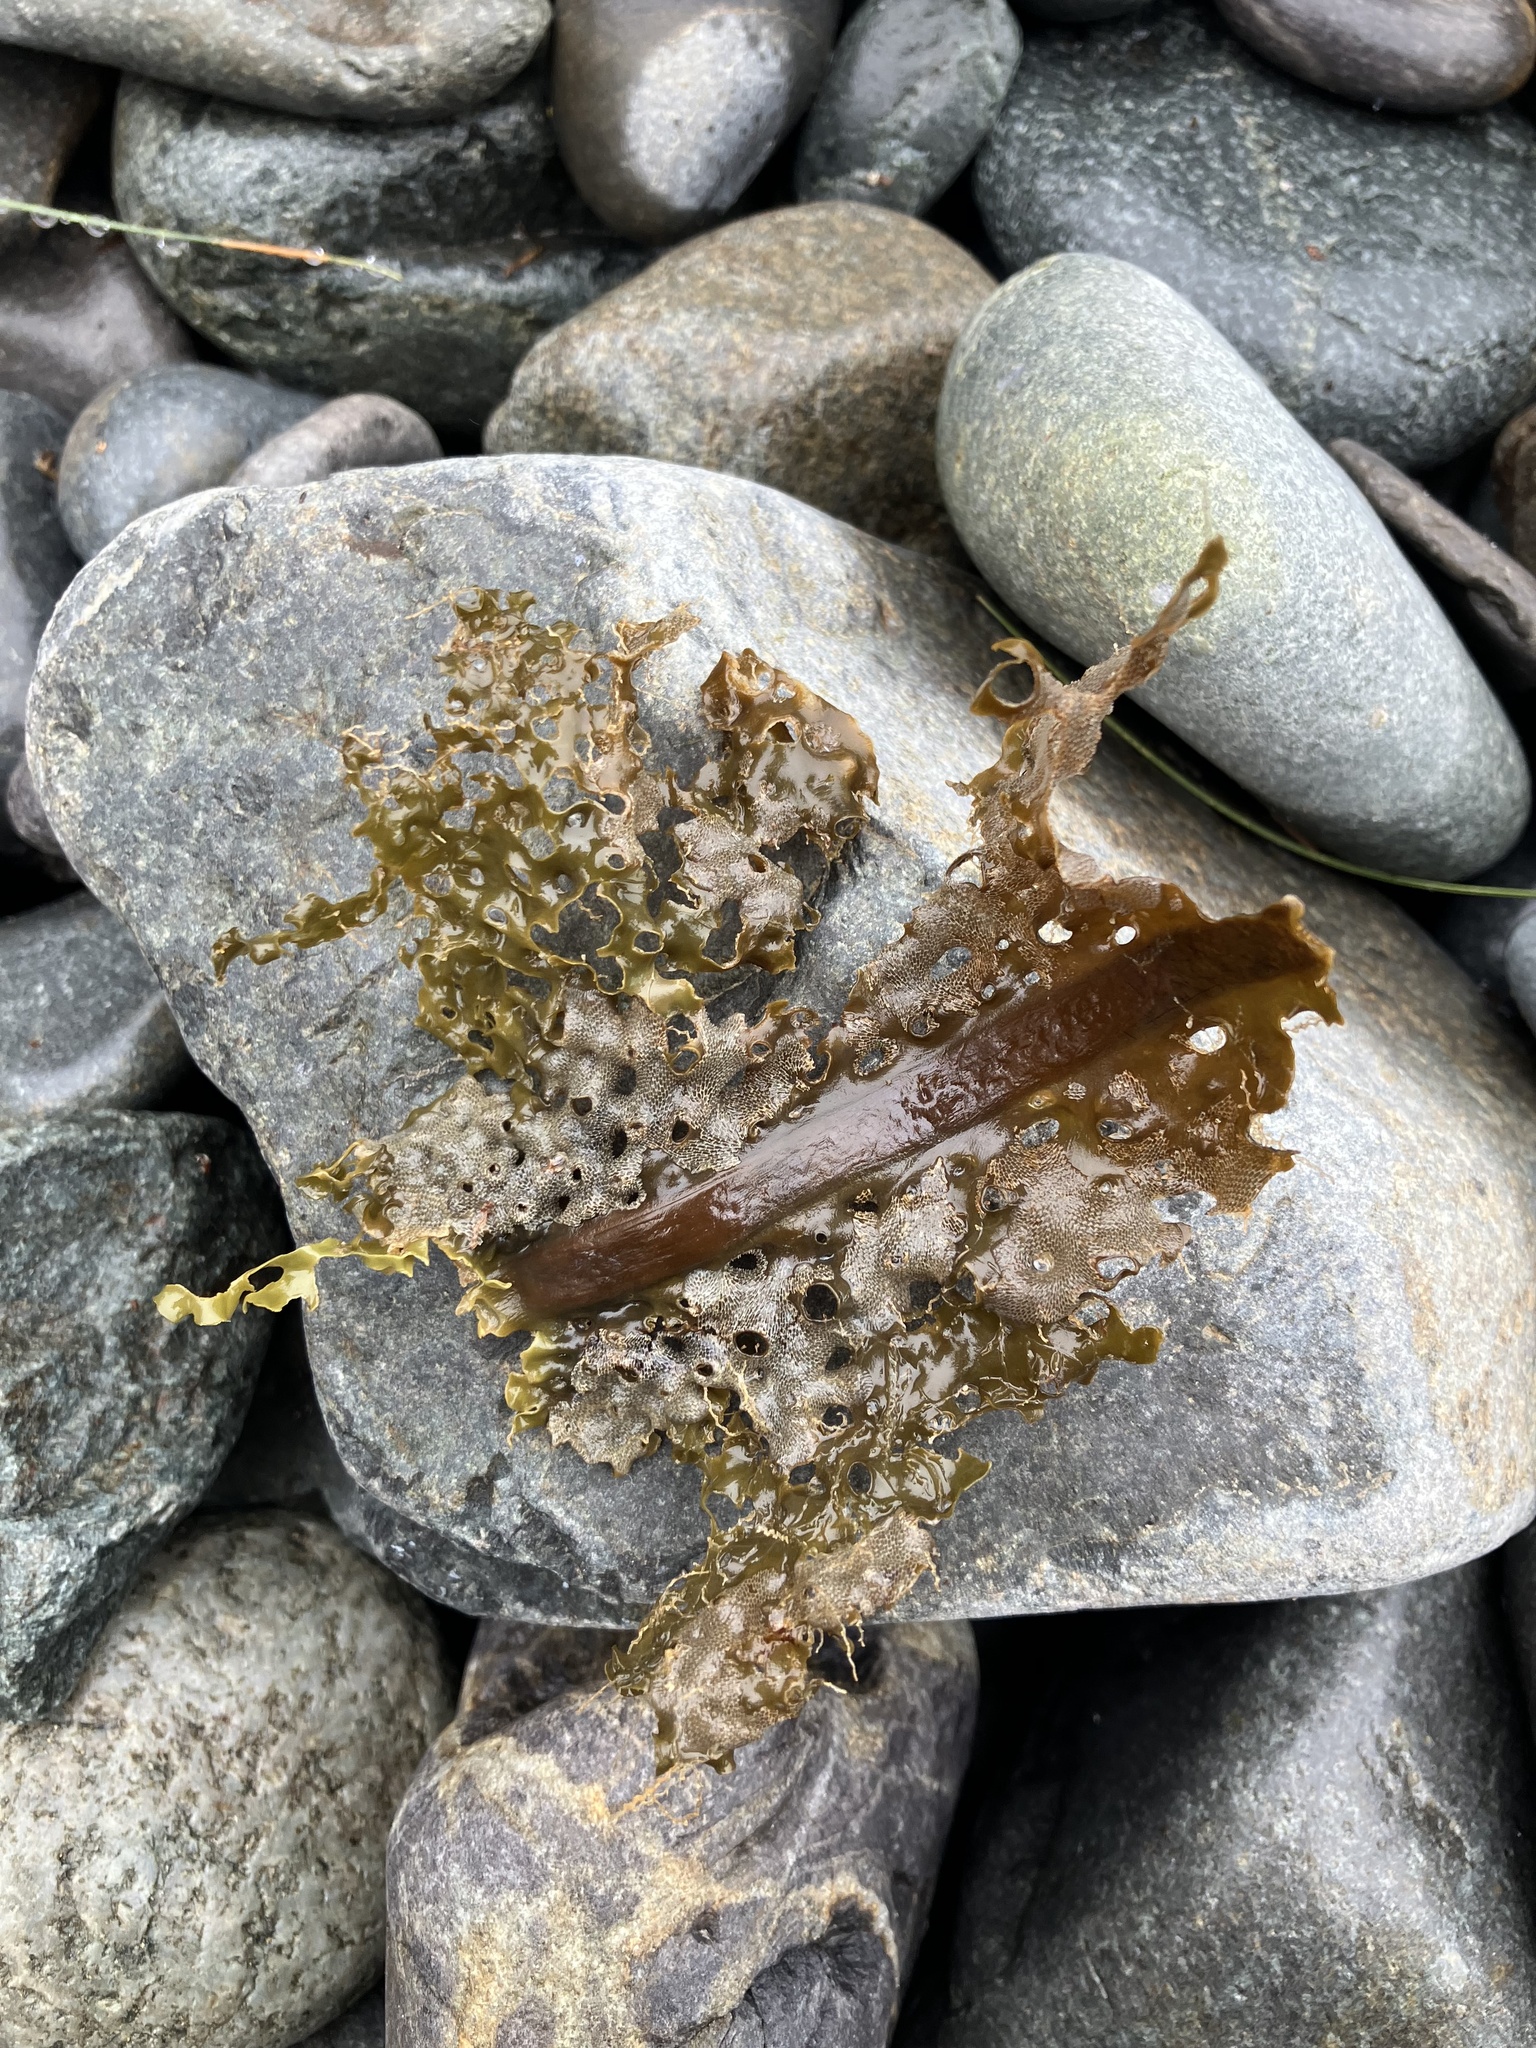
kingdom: Chromista
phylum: Ochrophyta
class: Phaeophyceae
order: Laminariales
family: Costariaceae
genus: Agarum
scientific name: Agarum clathratum
